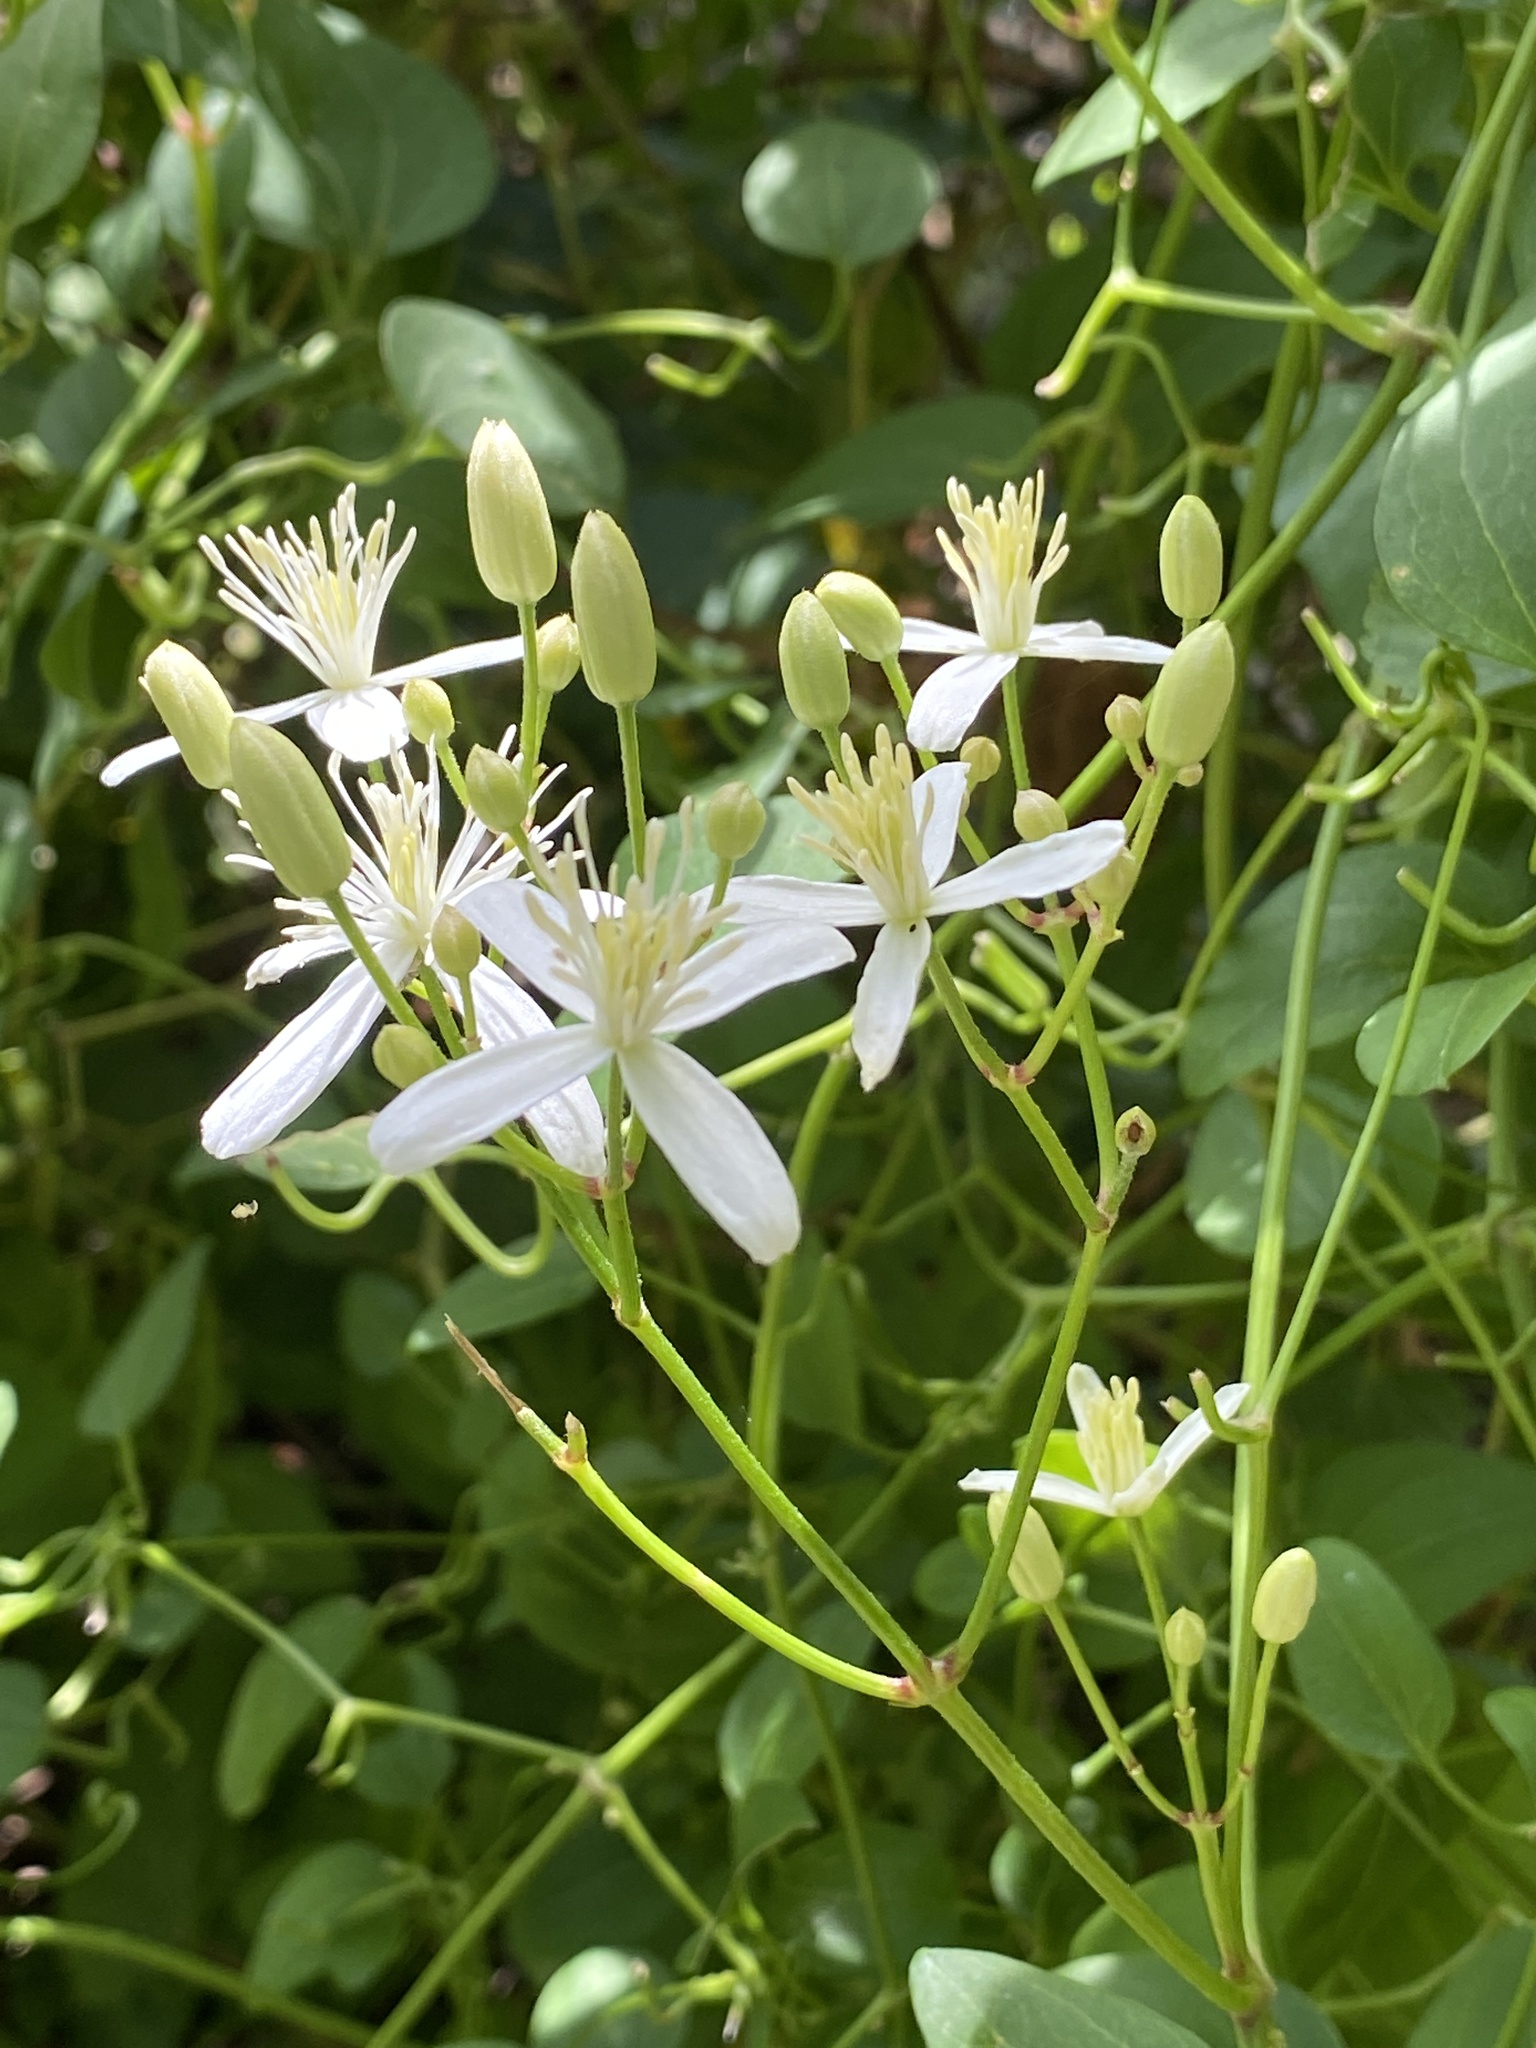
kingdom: Plantae
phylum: Tracheophyta
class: Magnoliopsida
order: Ranunculales
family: Ranunculaceae
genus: Clematis
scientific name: Clematis terniflora
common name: Sweet autumn clematis
